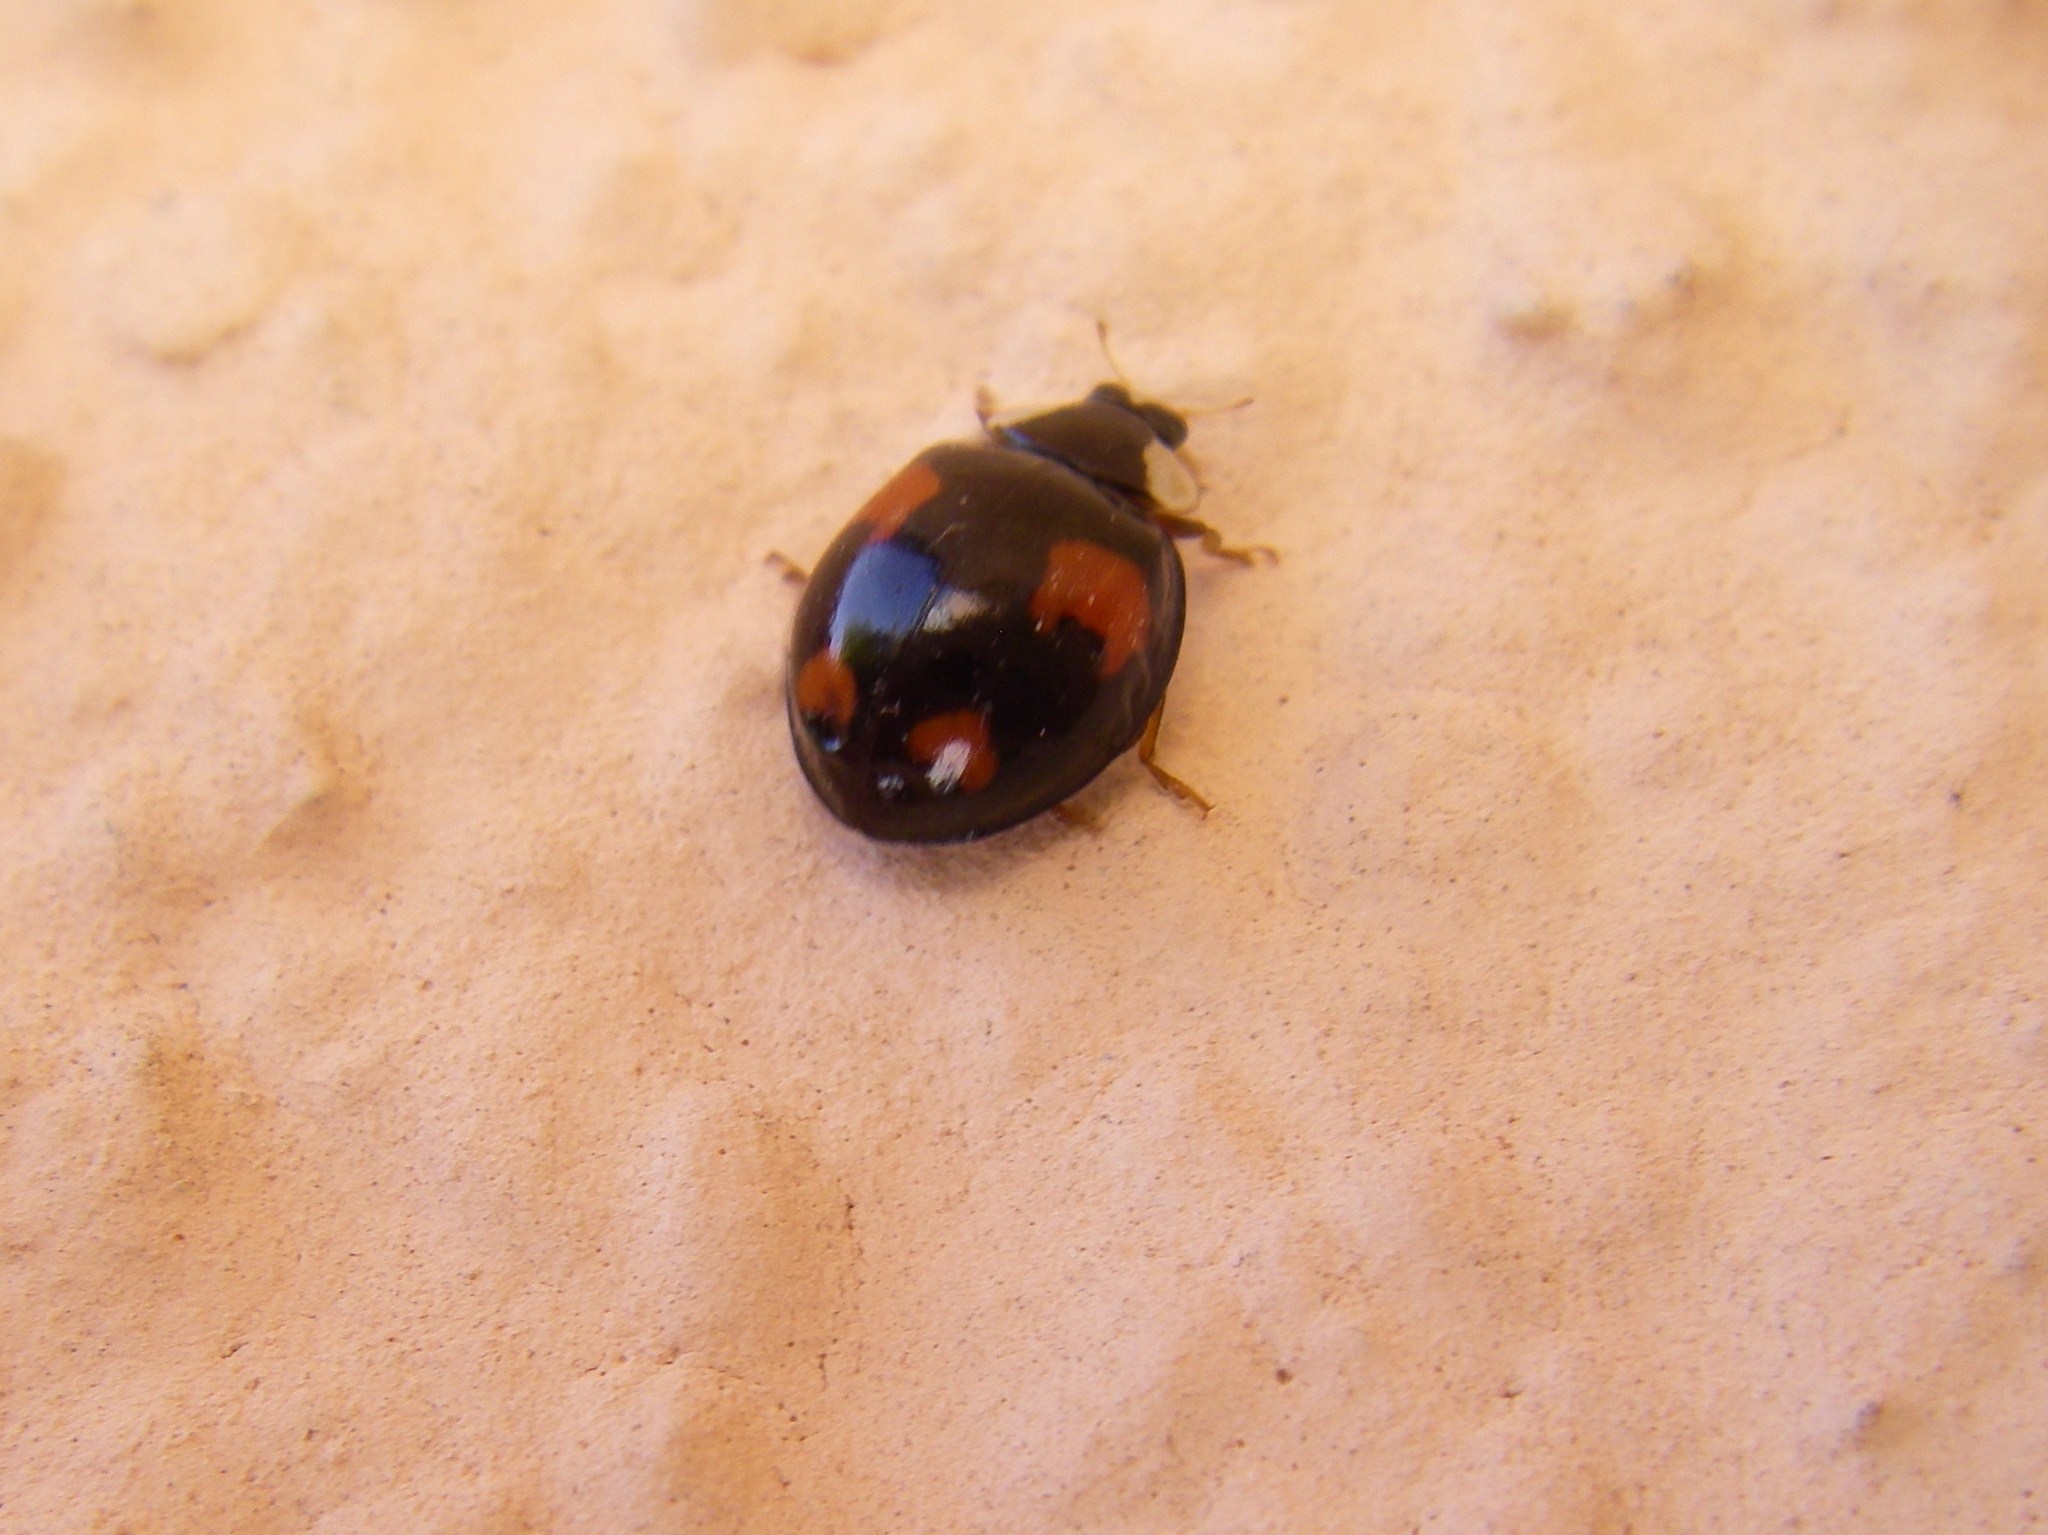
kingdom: Animalia
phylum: Arthropoda
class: Insecta
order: Coleoptera
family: Coccinellidae
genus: Harmonia
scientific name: Harmonia axyridis
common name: Harlequin ladybird
